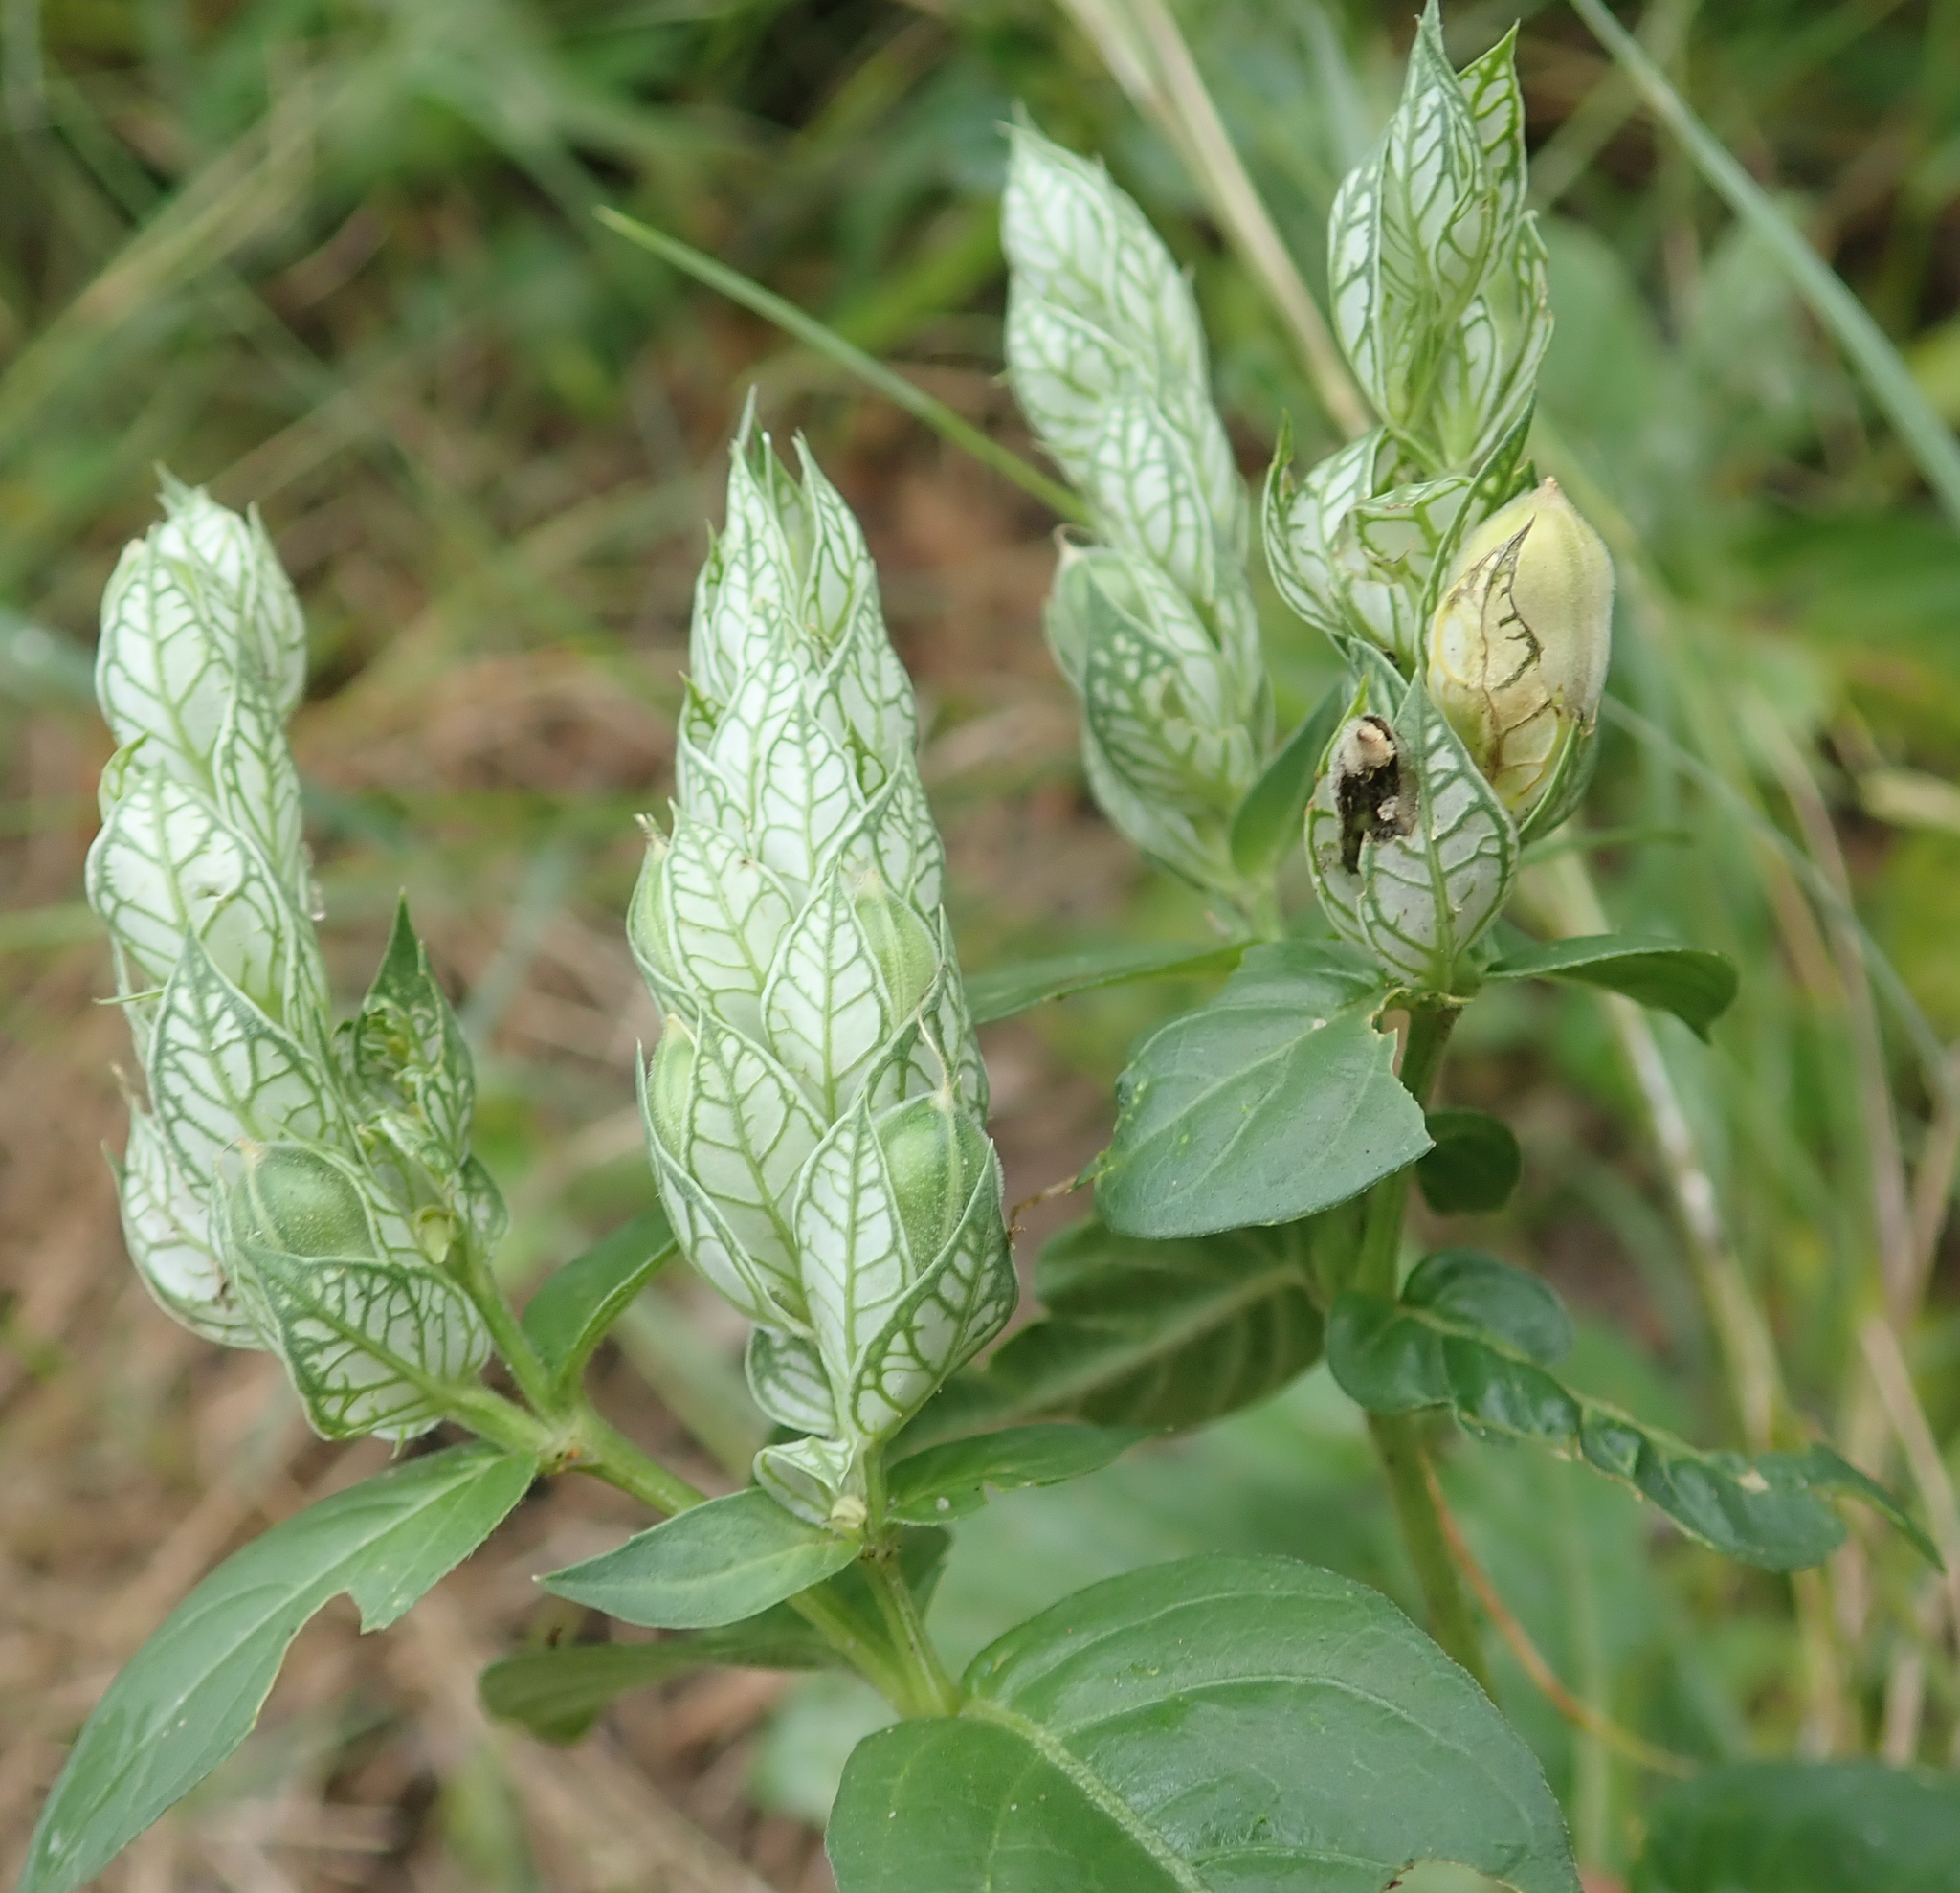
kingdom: Plantae
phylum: Tracheophyta
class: Magnoliopsida
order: Lamiales
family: Acanthaceae
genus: Justicia
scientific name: Justicia betonica
